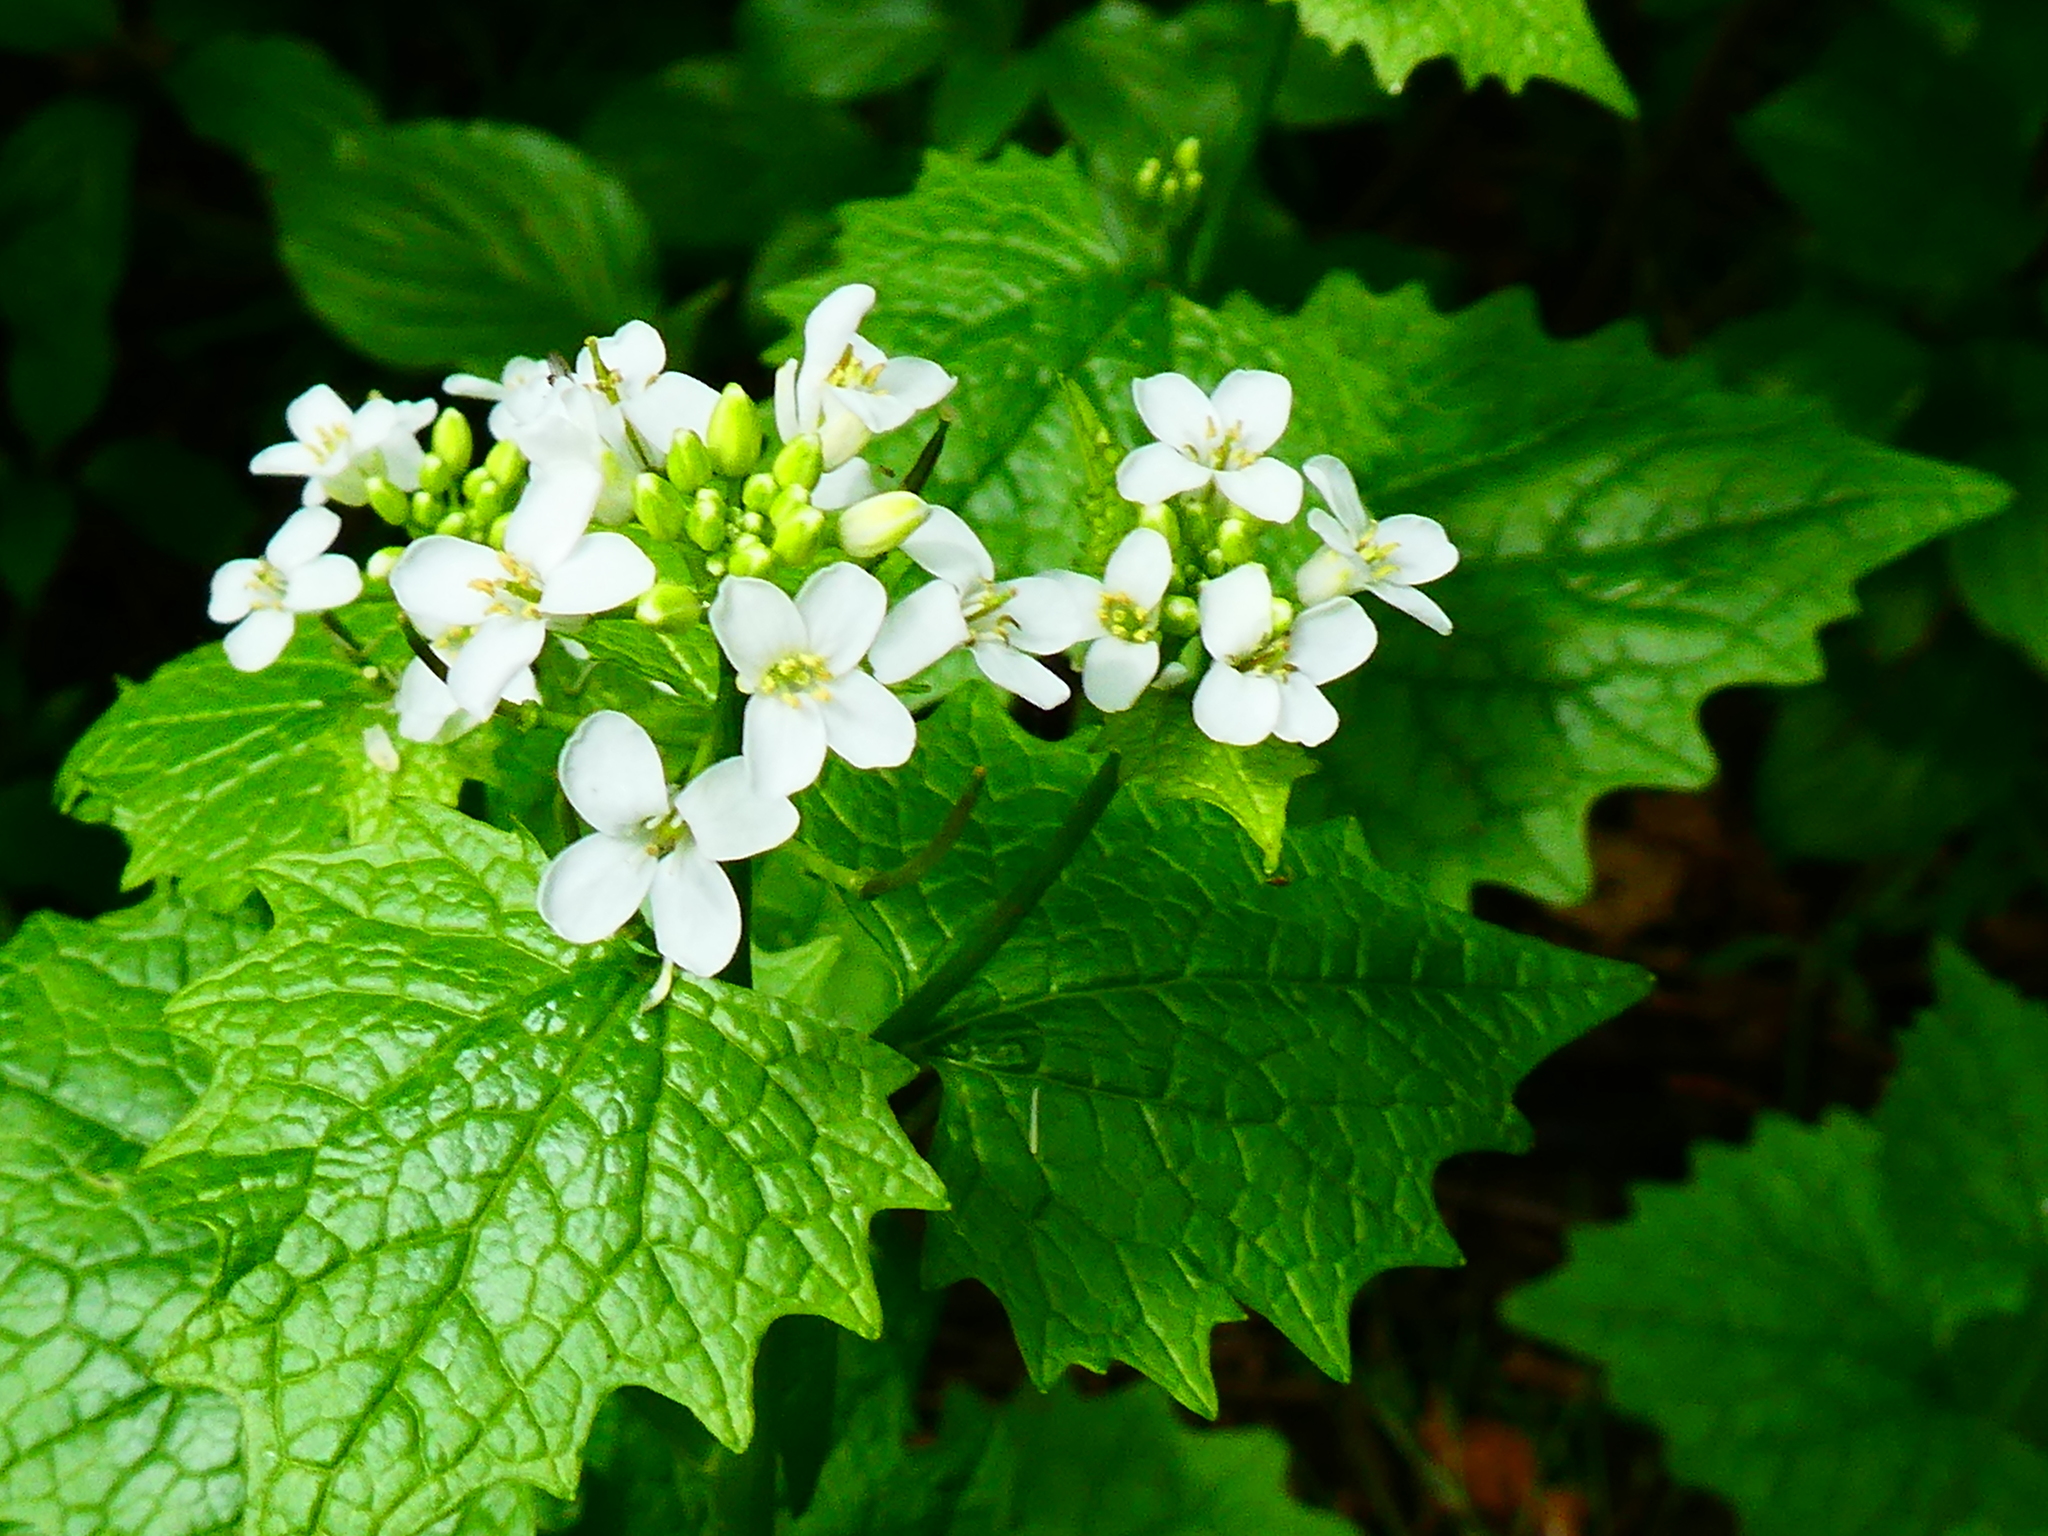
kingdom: Plantae
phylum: Tracheophyta
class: Magnoliopsida
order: Brassicales
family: Brassicaceae
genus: Alliaria
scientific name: Alliaria petiolata
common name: Garlic mustard
